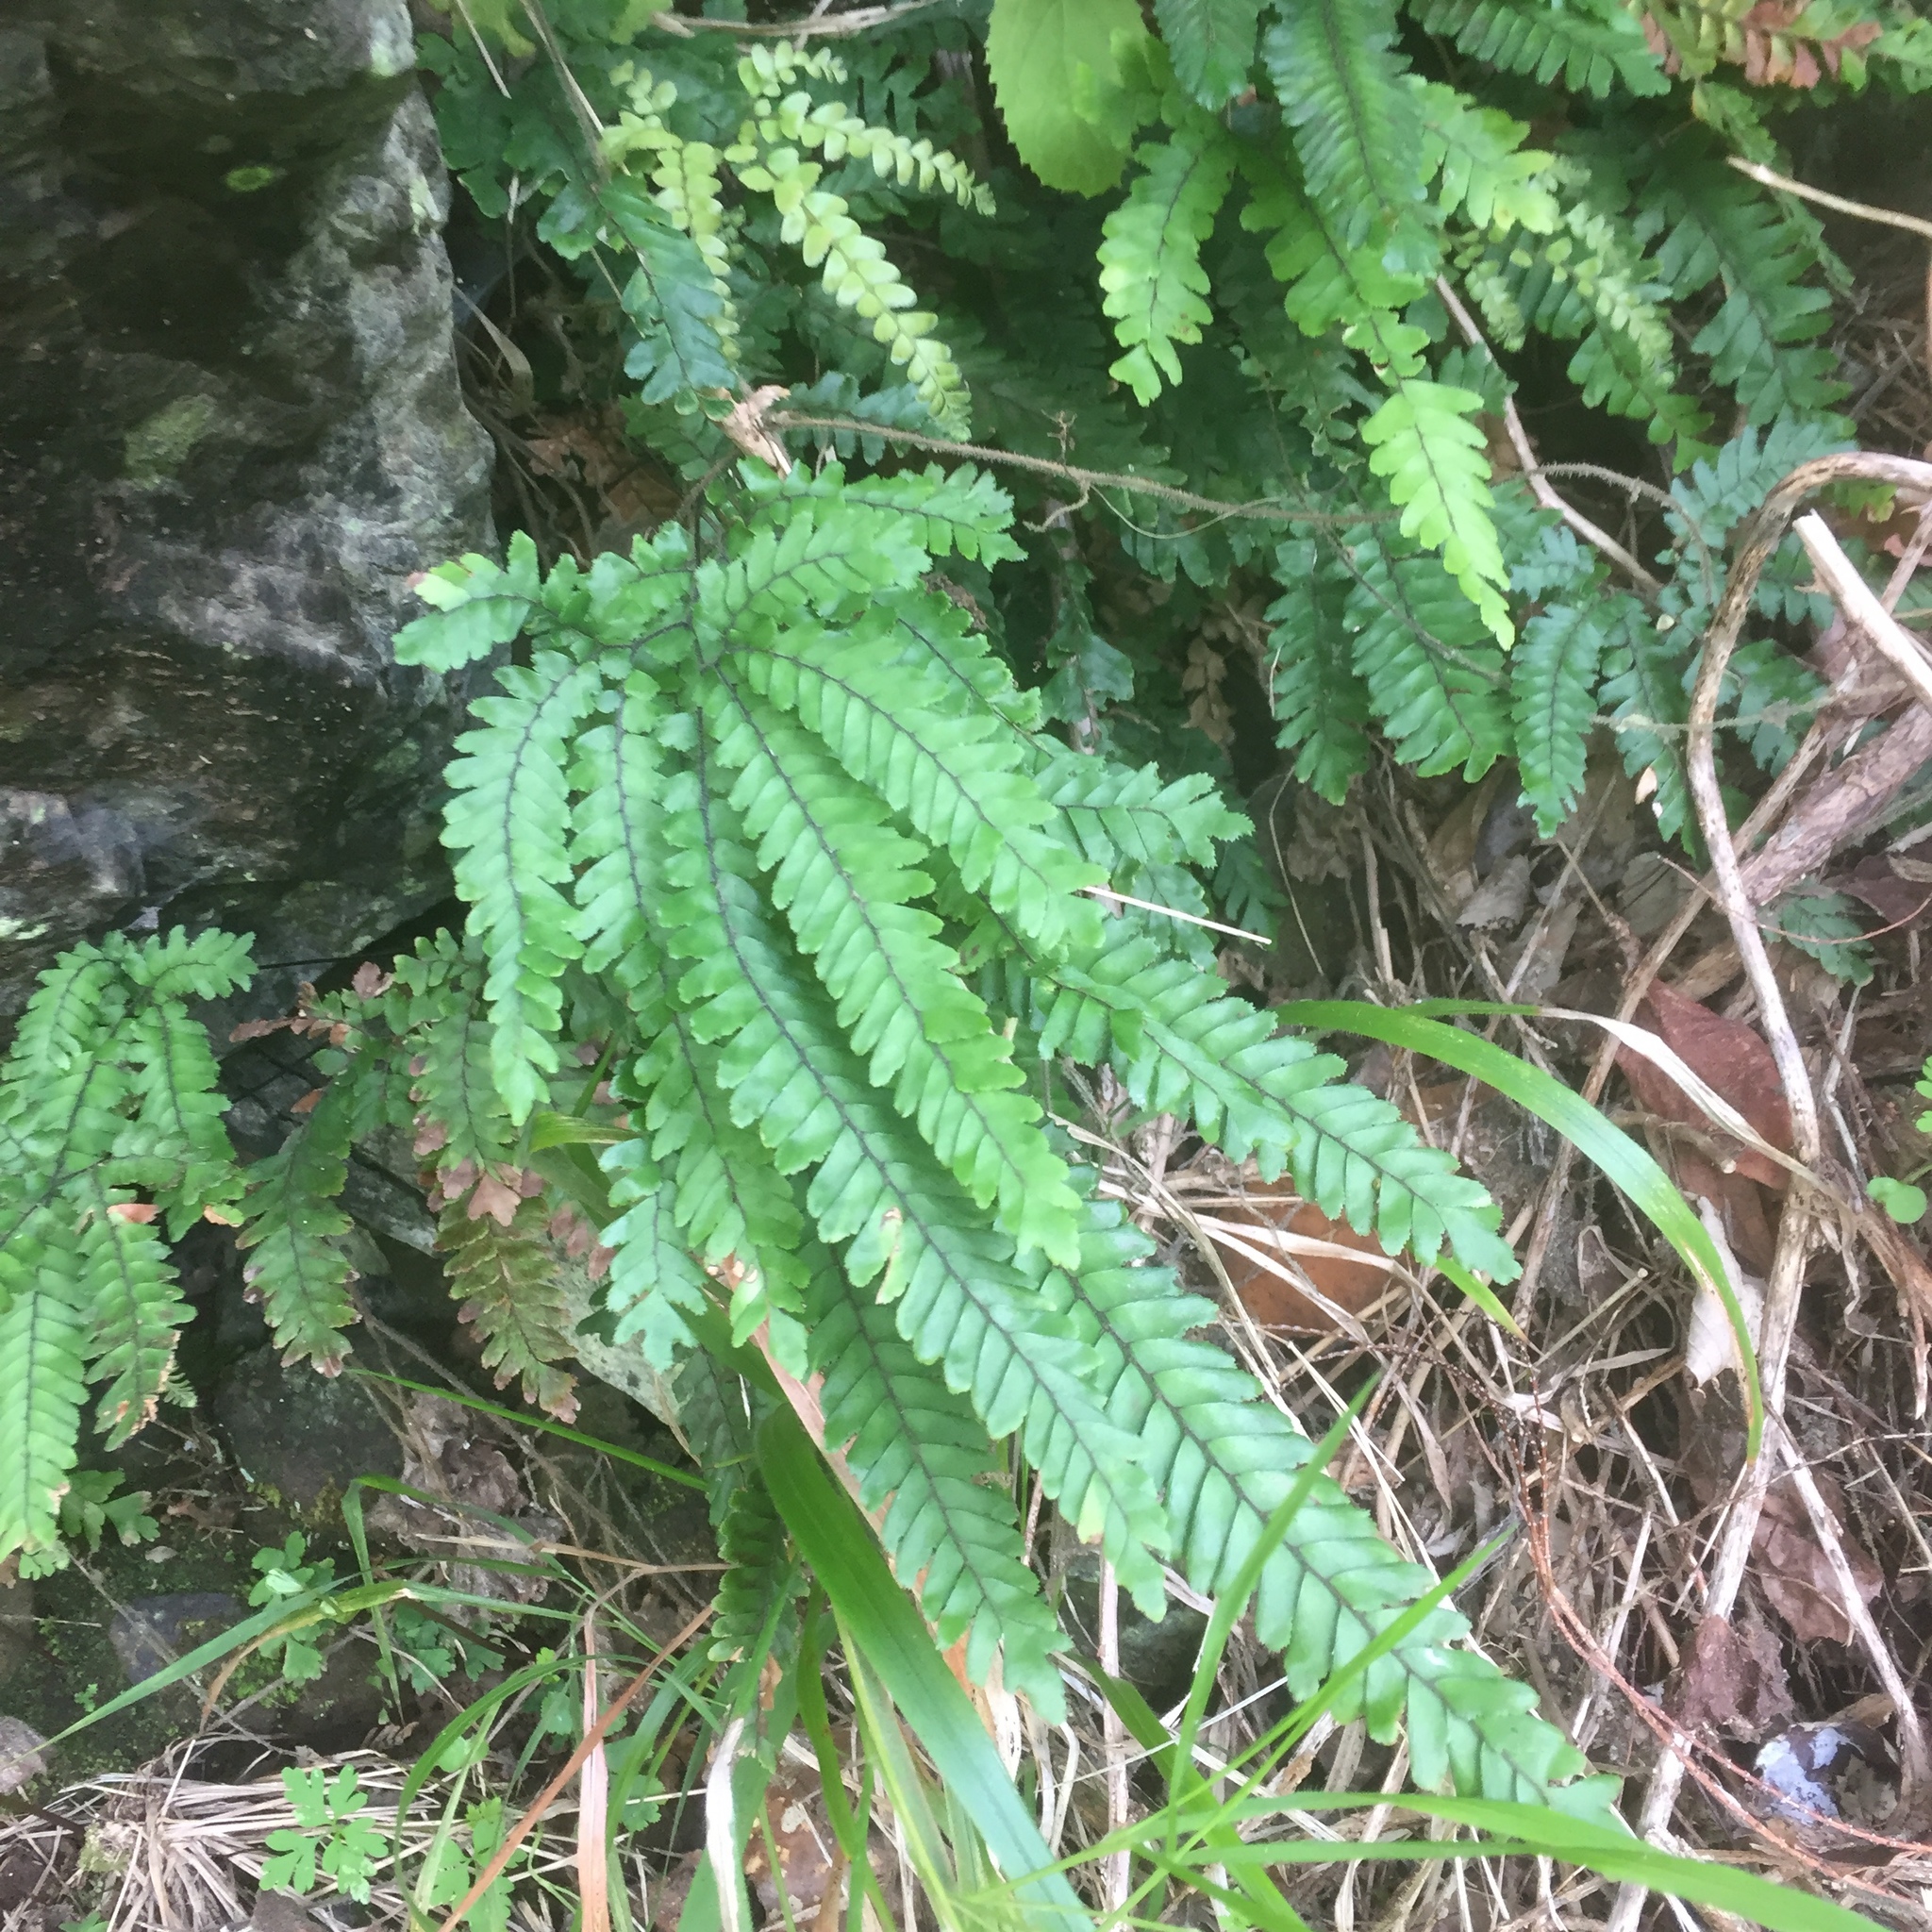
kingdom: Plantae
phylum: Tracheophyta
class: Polypodiopsida
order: Polypodiales
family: Pteridaceae
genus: Adiantum
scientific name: Adiantum hispidulum
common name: Rough maidenhair
